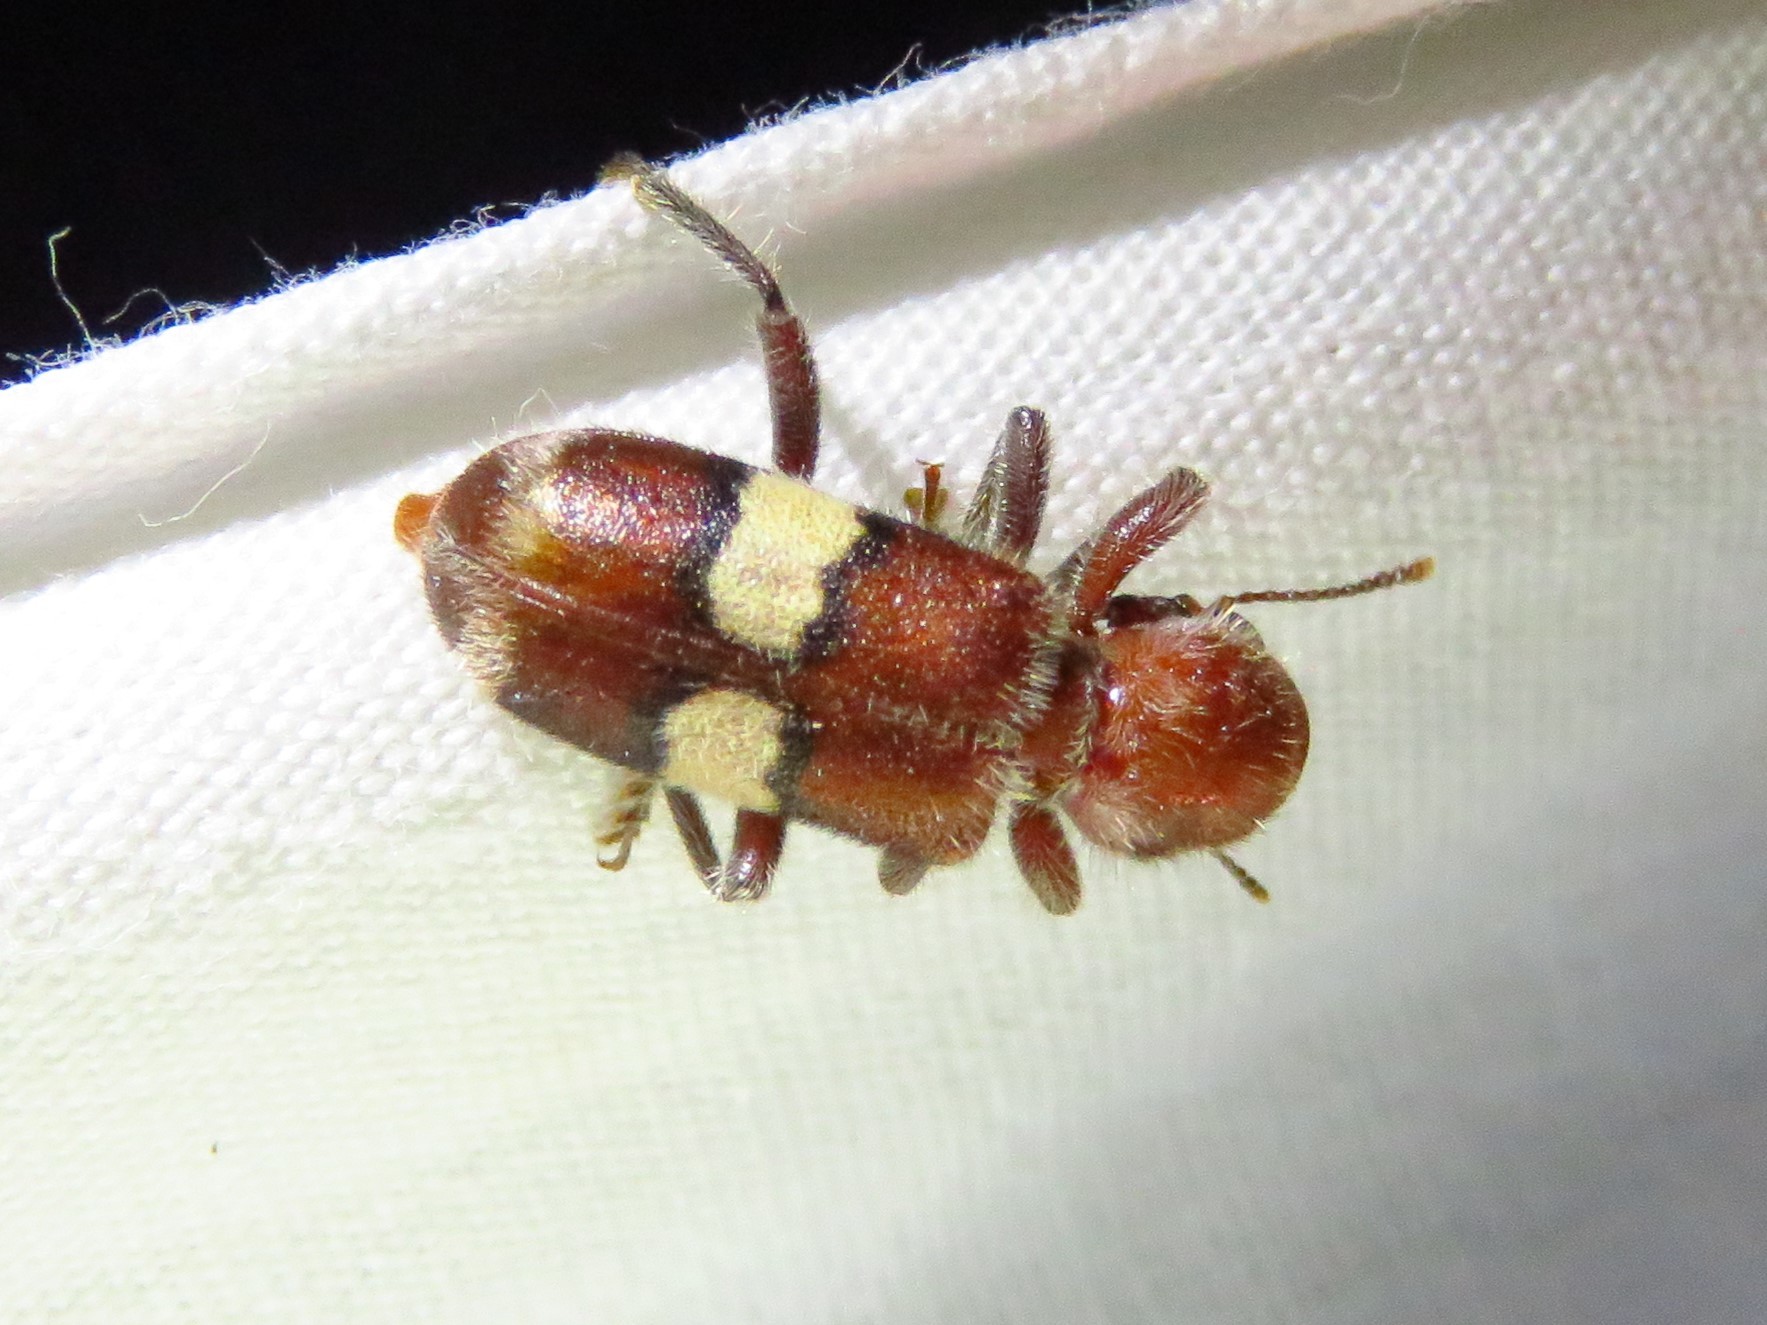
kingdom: Animalia
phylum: Arthropoda
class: Insecta
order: Coleoptera
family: Cleridae
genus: Enoclerus
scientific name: Enoclerus quadrisignatus
